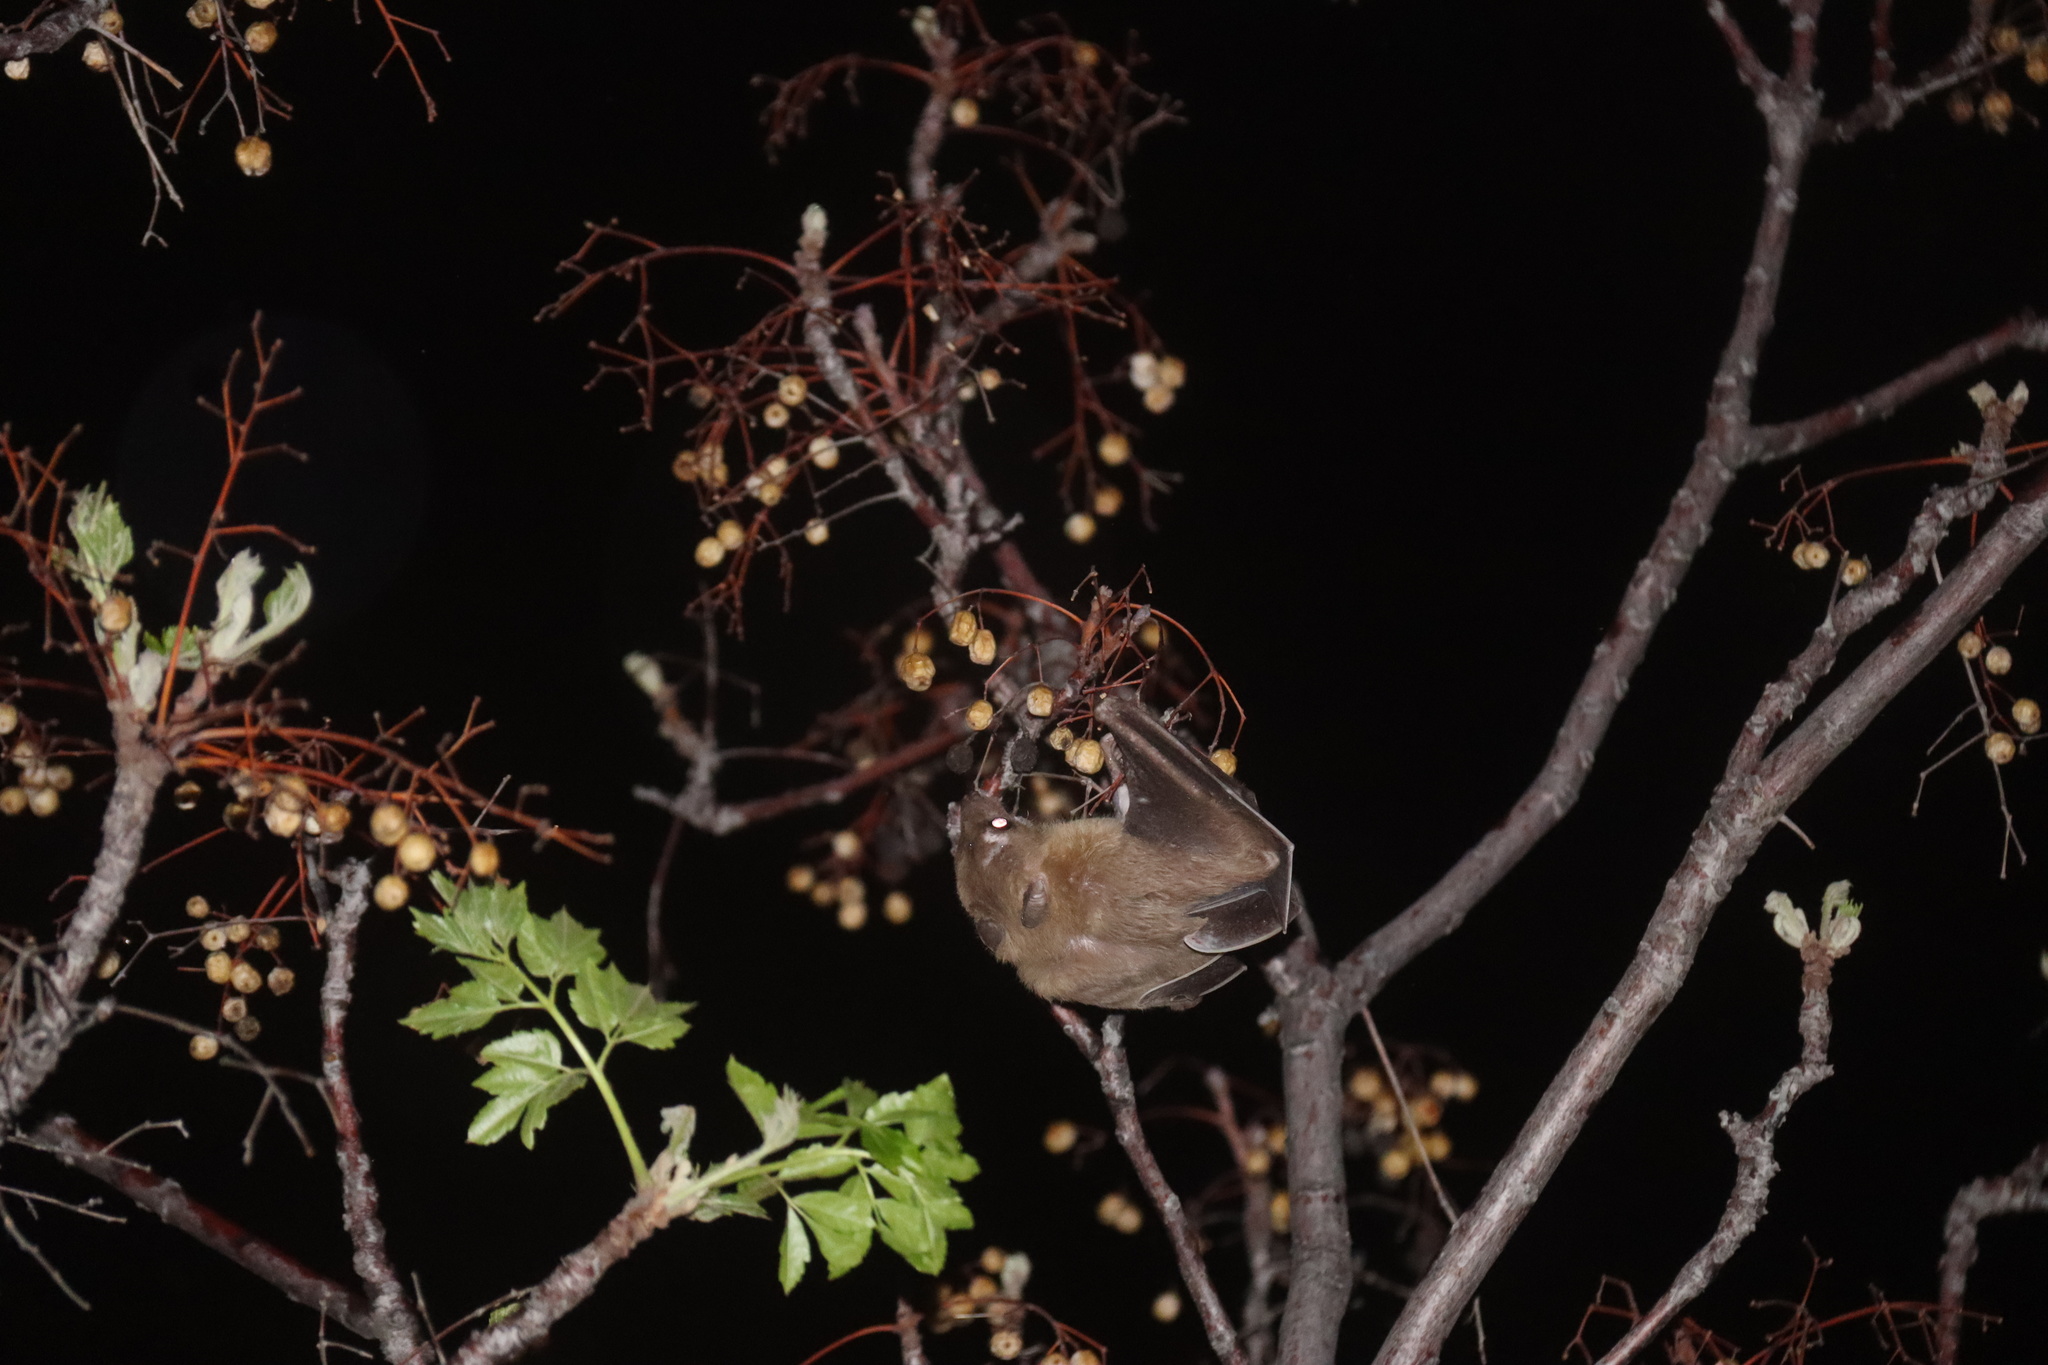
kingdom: Animalia
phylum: Chordata
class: Mammalia
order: Chiroptera
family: Pteropodidae
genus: Rousettus
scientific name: Rousettus aegyptiacus
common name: Egyptian rousette
